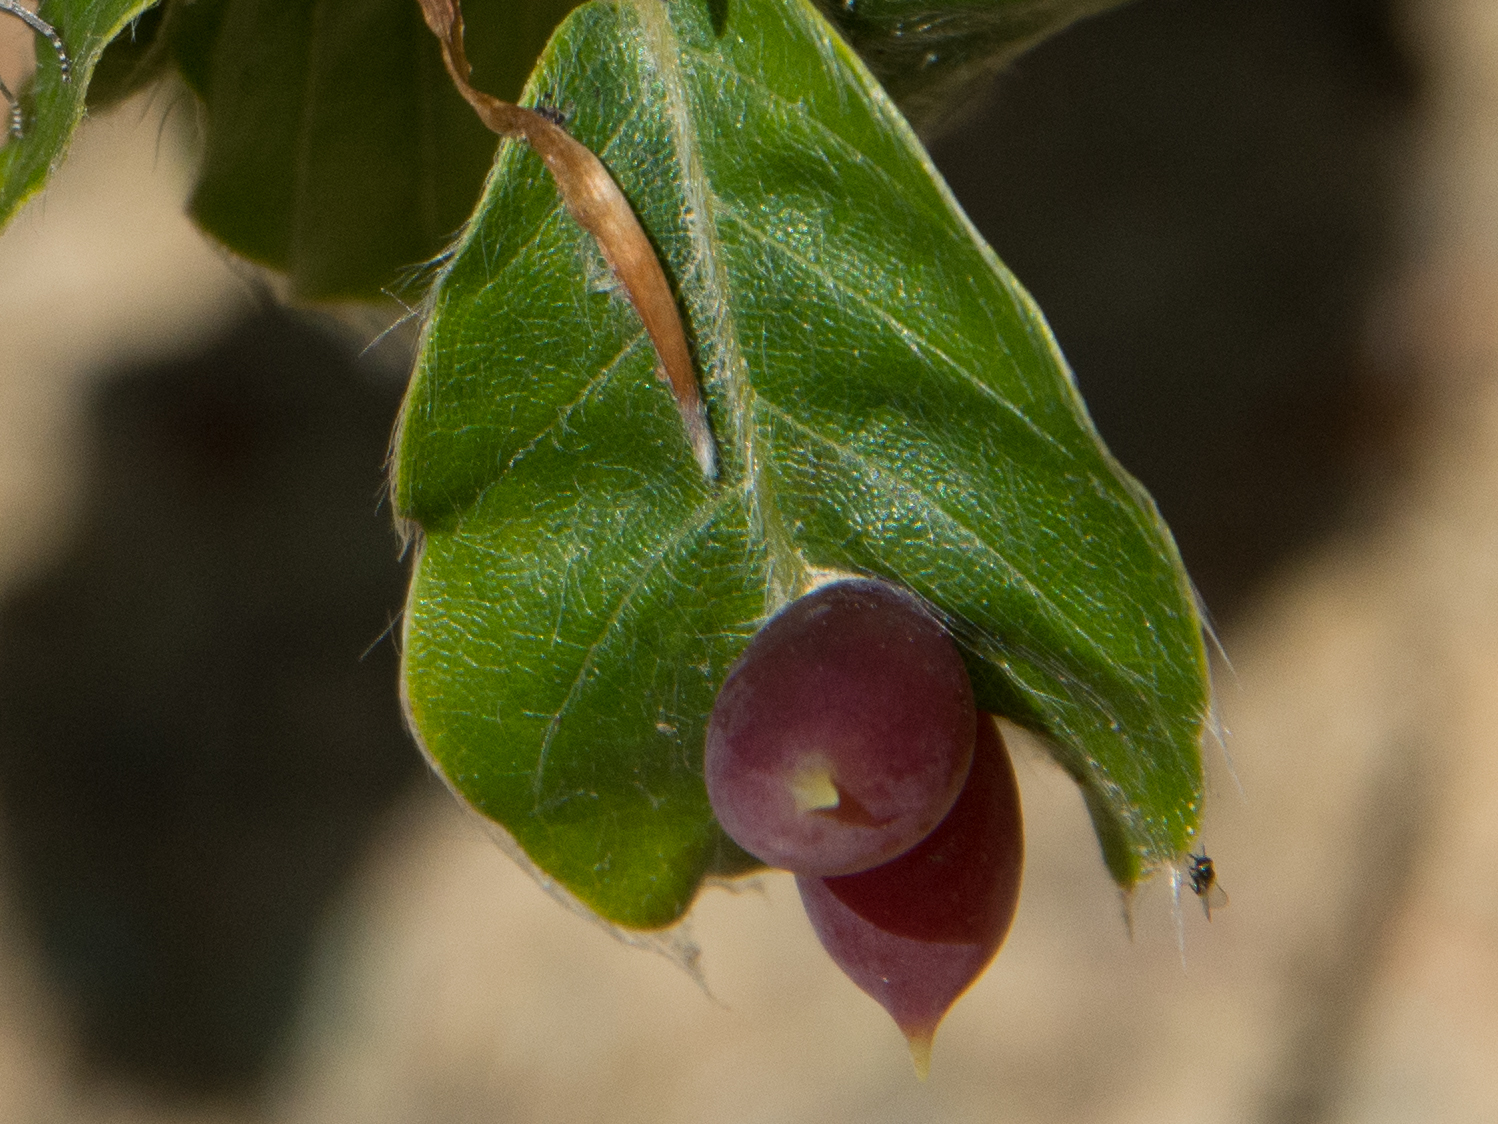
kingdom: Animalia
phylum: Arthropoda
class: Insecta
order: Diptera
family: Cecidomyiidae
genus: Mikiola
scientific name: Mikiola fagi
